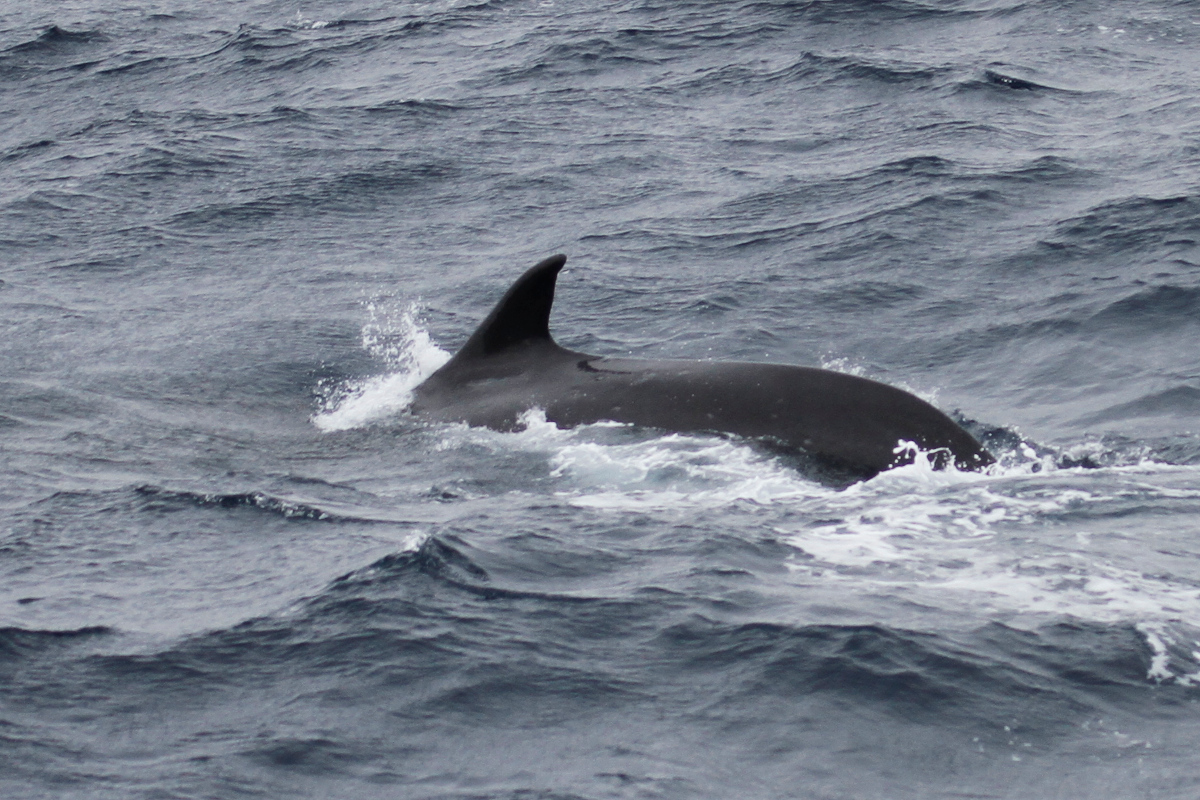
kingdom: Animalia
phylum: Chordata
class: Mammalia
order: Cetacea
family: Balaenopteridae
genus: Balaenoptera
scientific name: Balaenoptera physalus
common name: Fin whale
